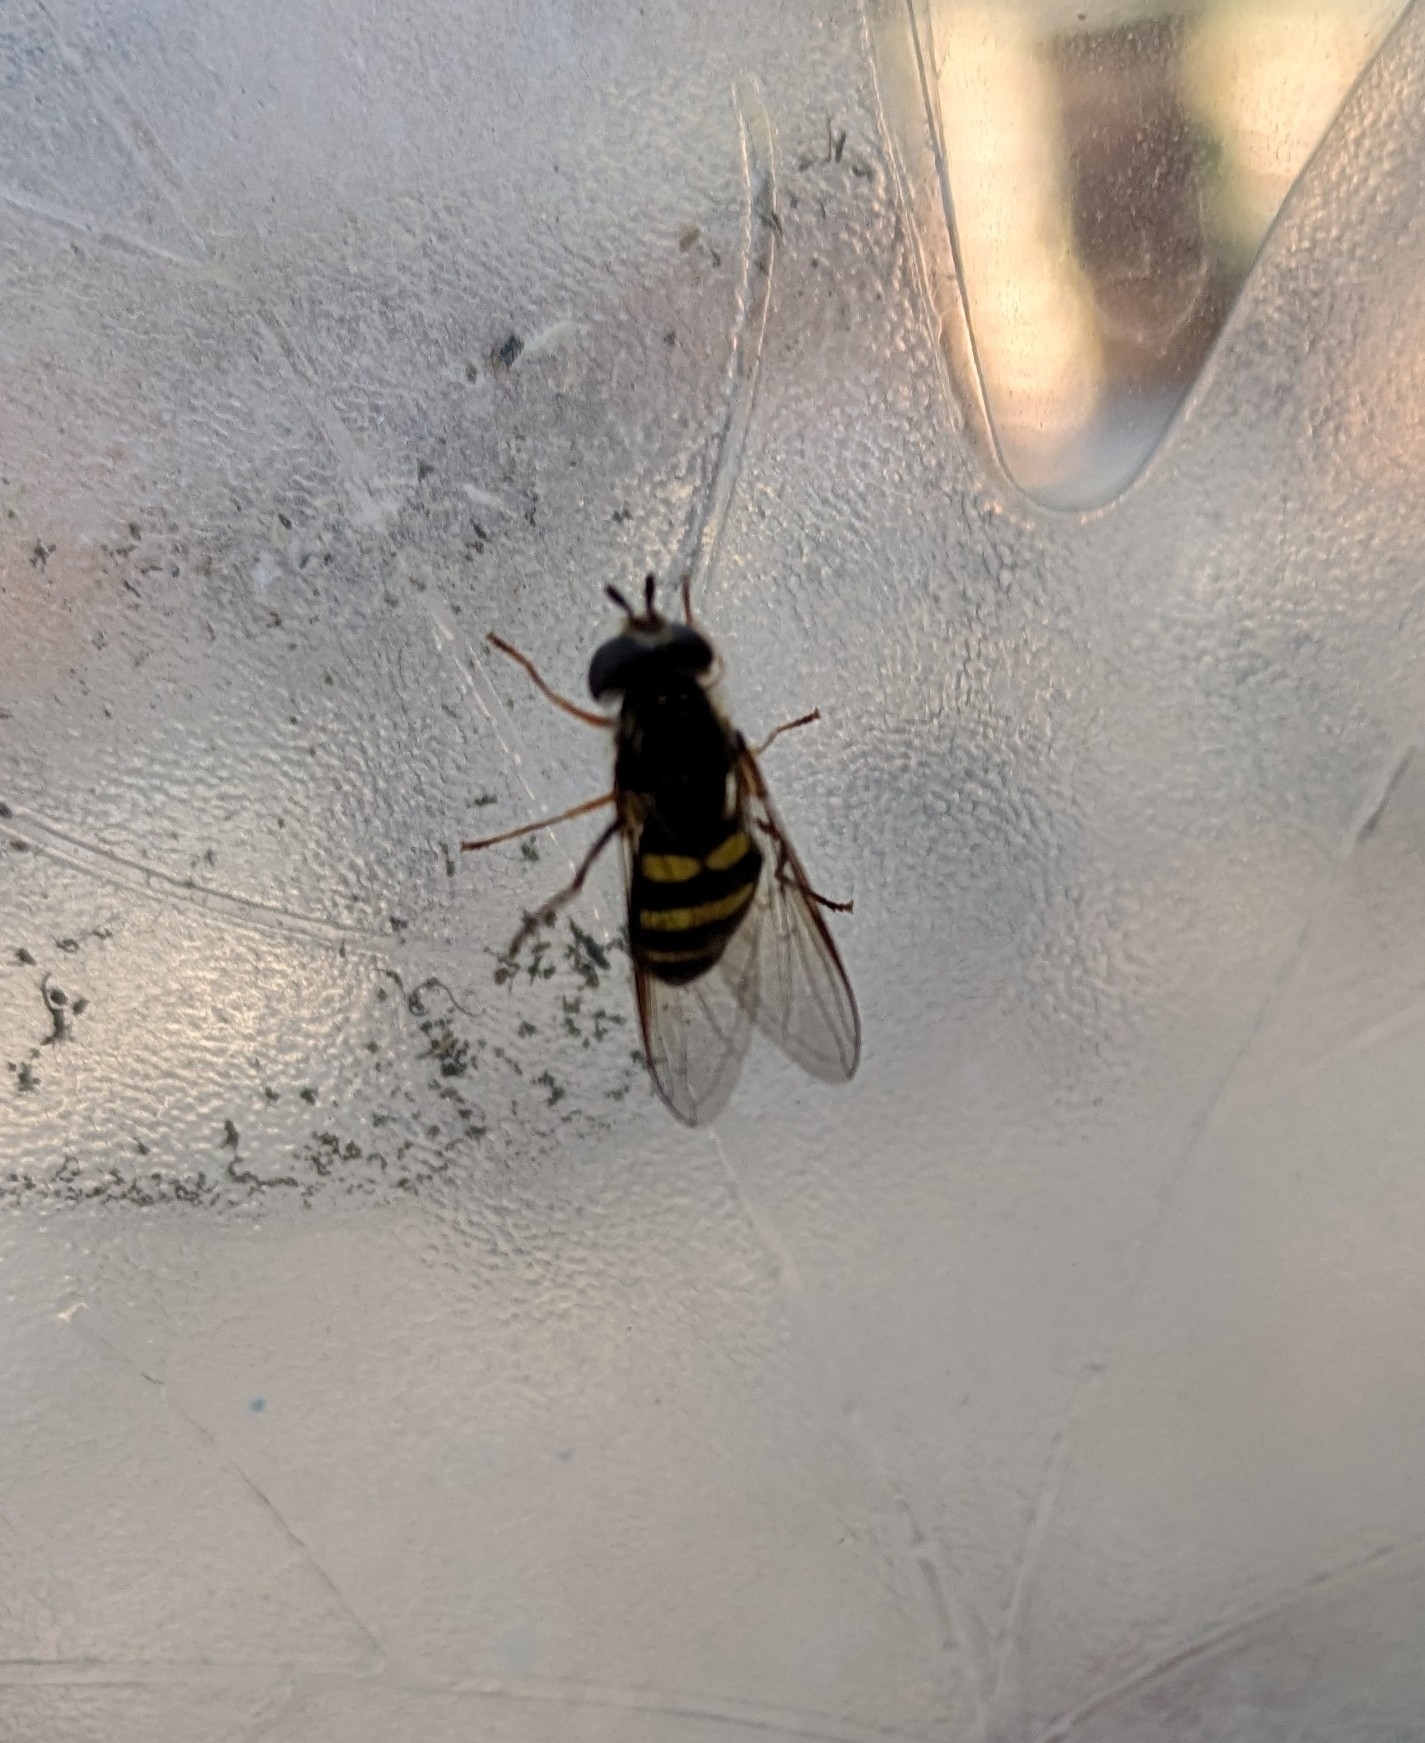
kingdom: Animalia
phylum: Arthropoda
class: Insecta
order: Diptera
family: Syrphidae
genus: Eupeodes
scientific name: Eupeodes
